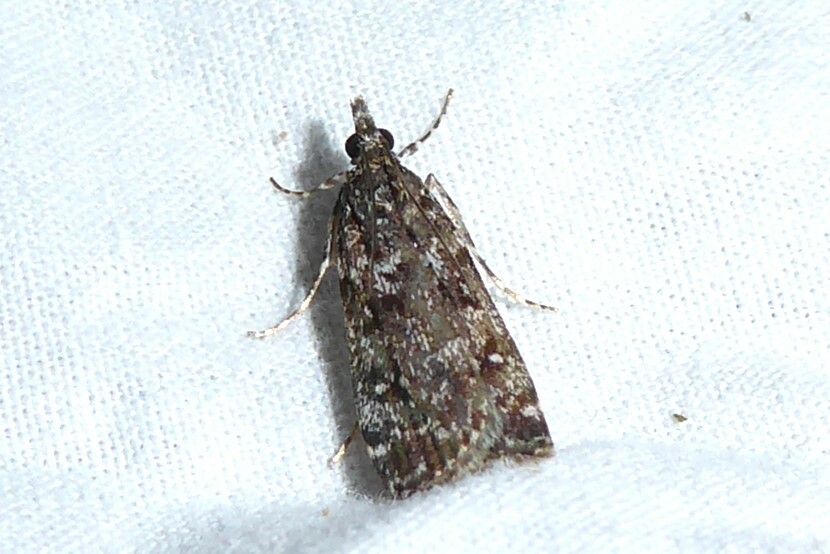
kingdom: Animalia
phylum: Arthropoda
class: Insecta
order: Lepidoptera
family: Crambidae
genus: Eudonia
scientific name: Eudonia philerga
